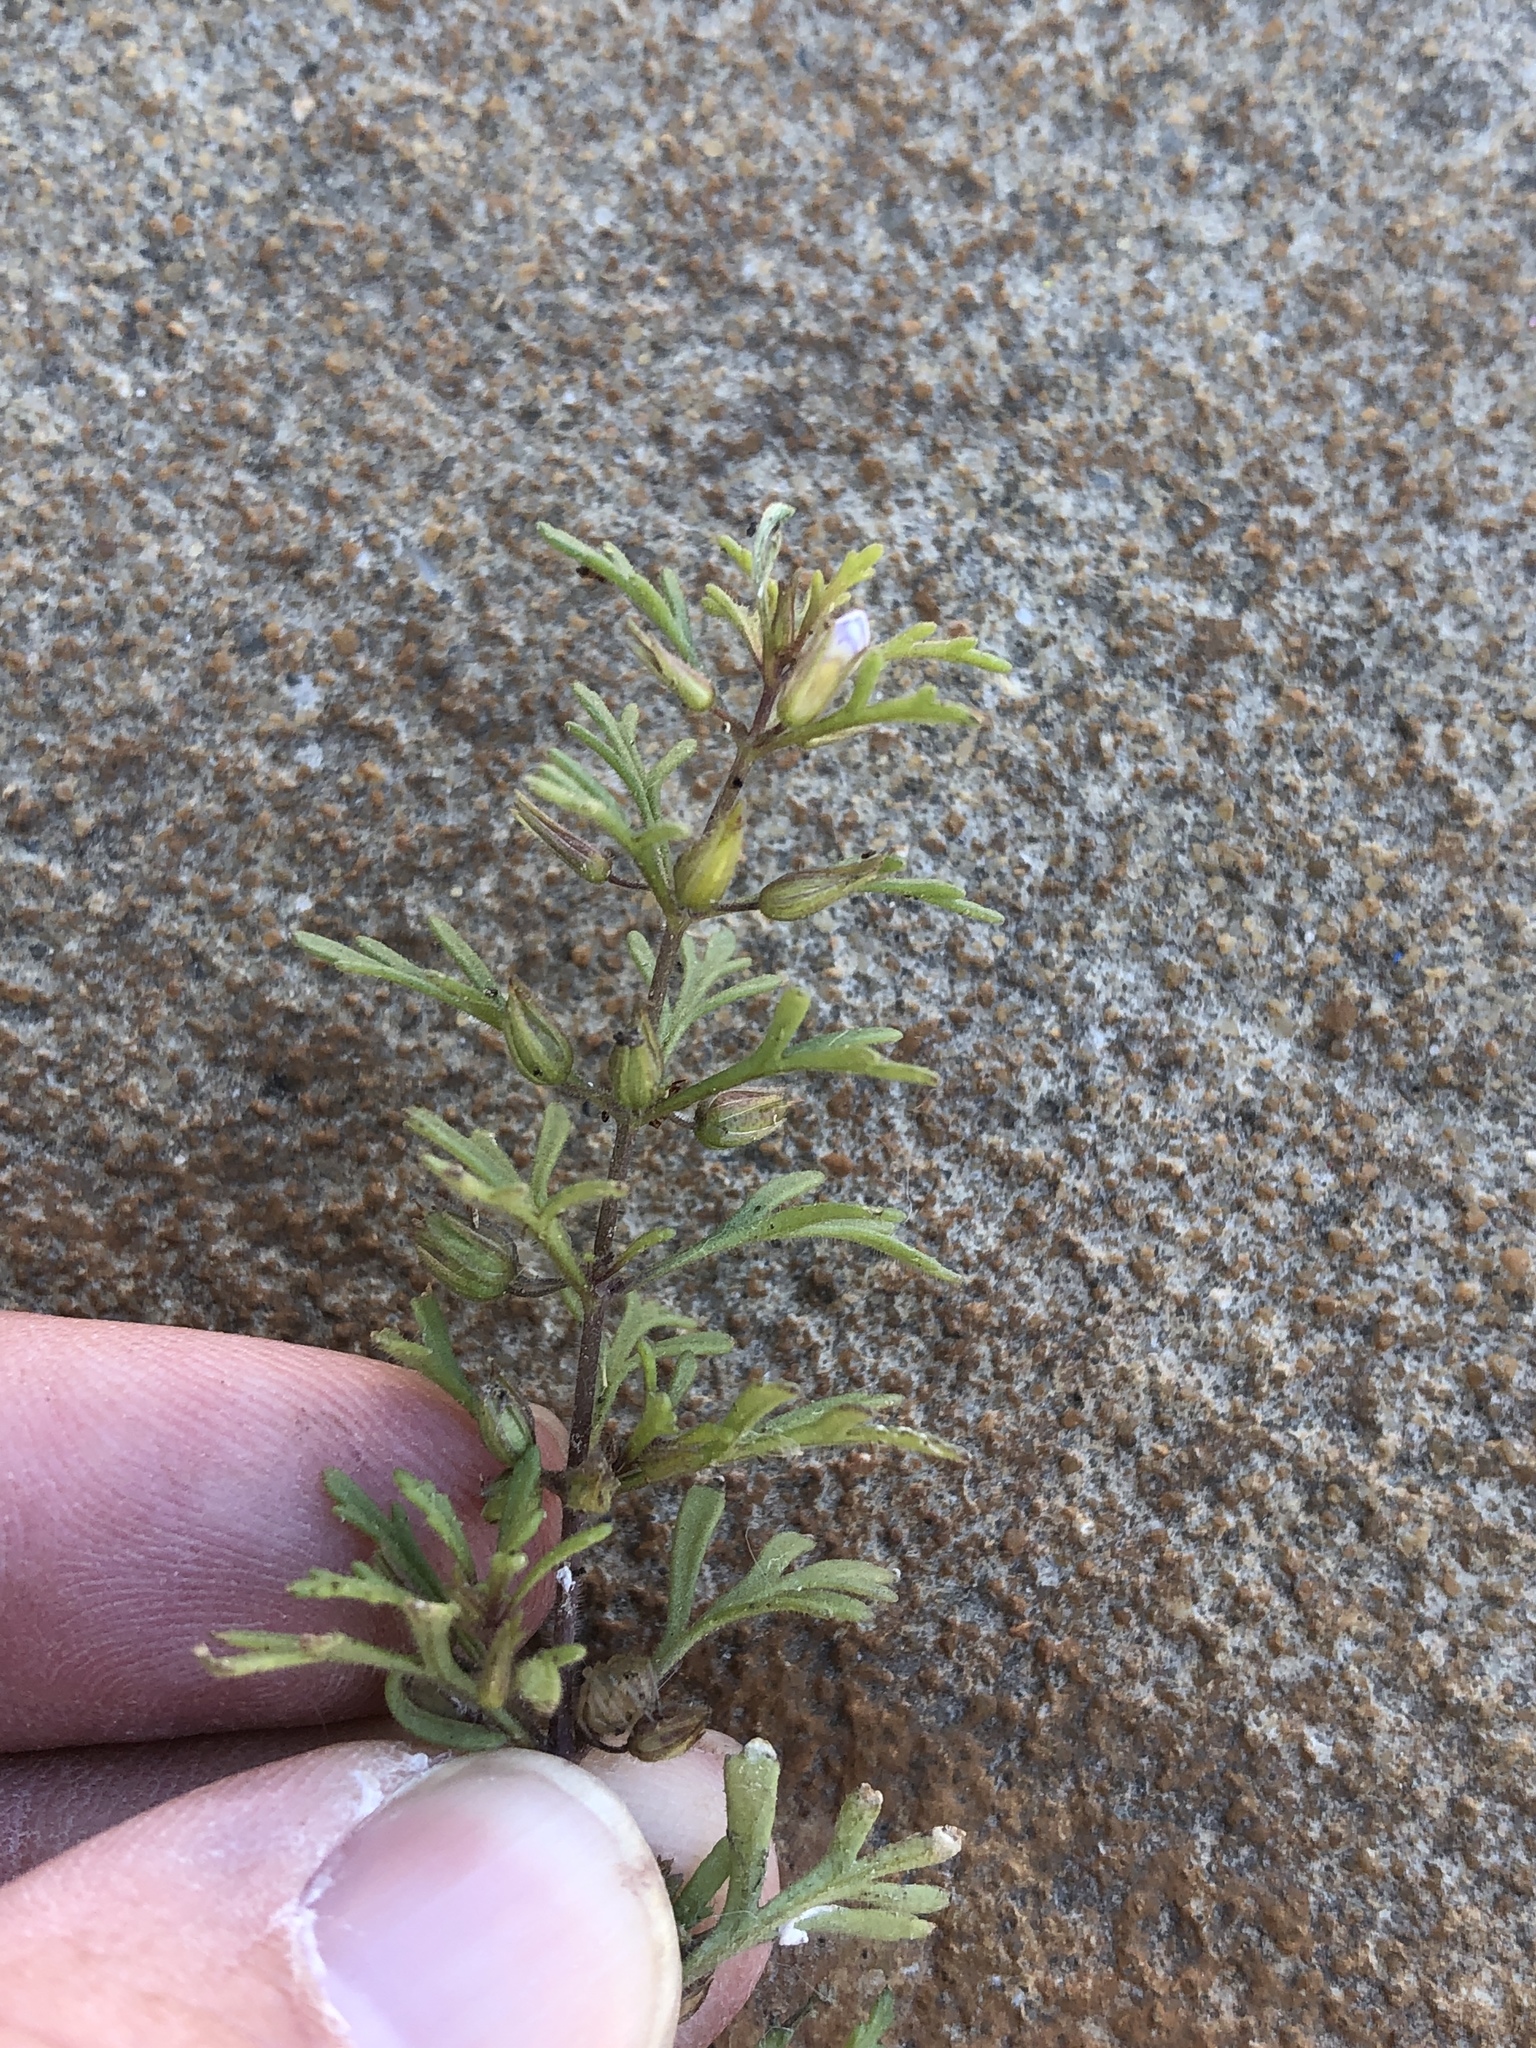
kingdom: Plantae
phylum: Tracheophyta
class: Magnoliopsida
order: Lamiales
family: Plantaginaceae
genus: Leucospora
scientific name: Leucospora multifida
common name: Narrow-leaf paleseed
